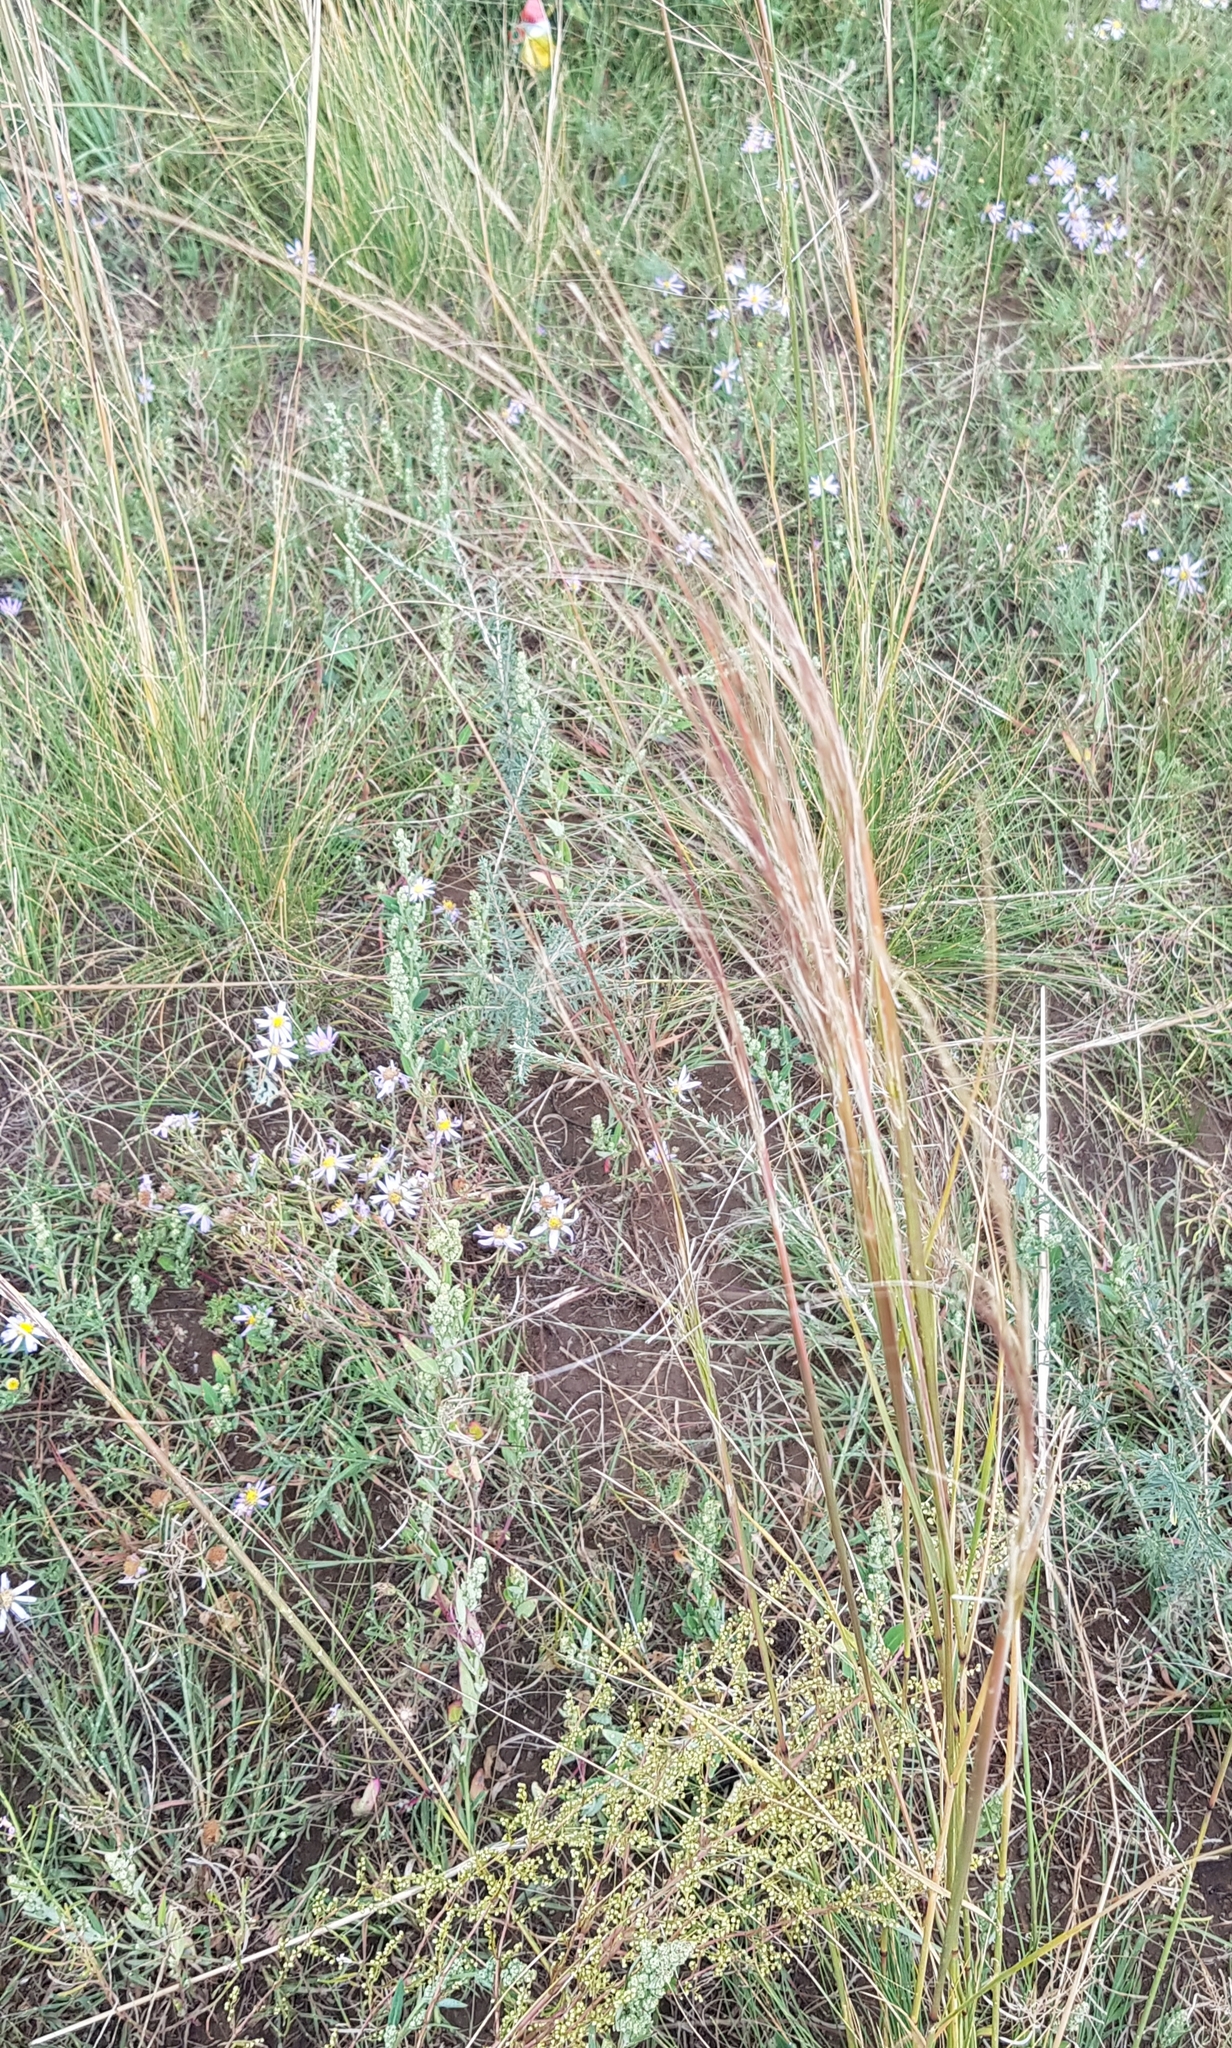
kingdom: Plantae
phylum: Tracheophyta
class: Liliopsida
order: Poales
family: Poaceae
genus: Stipa
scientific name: Stipa krylovii
